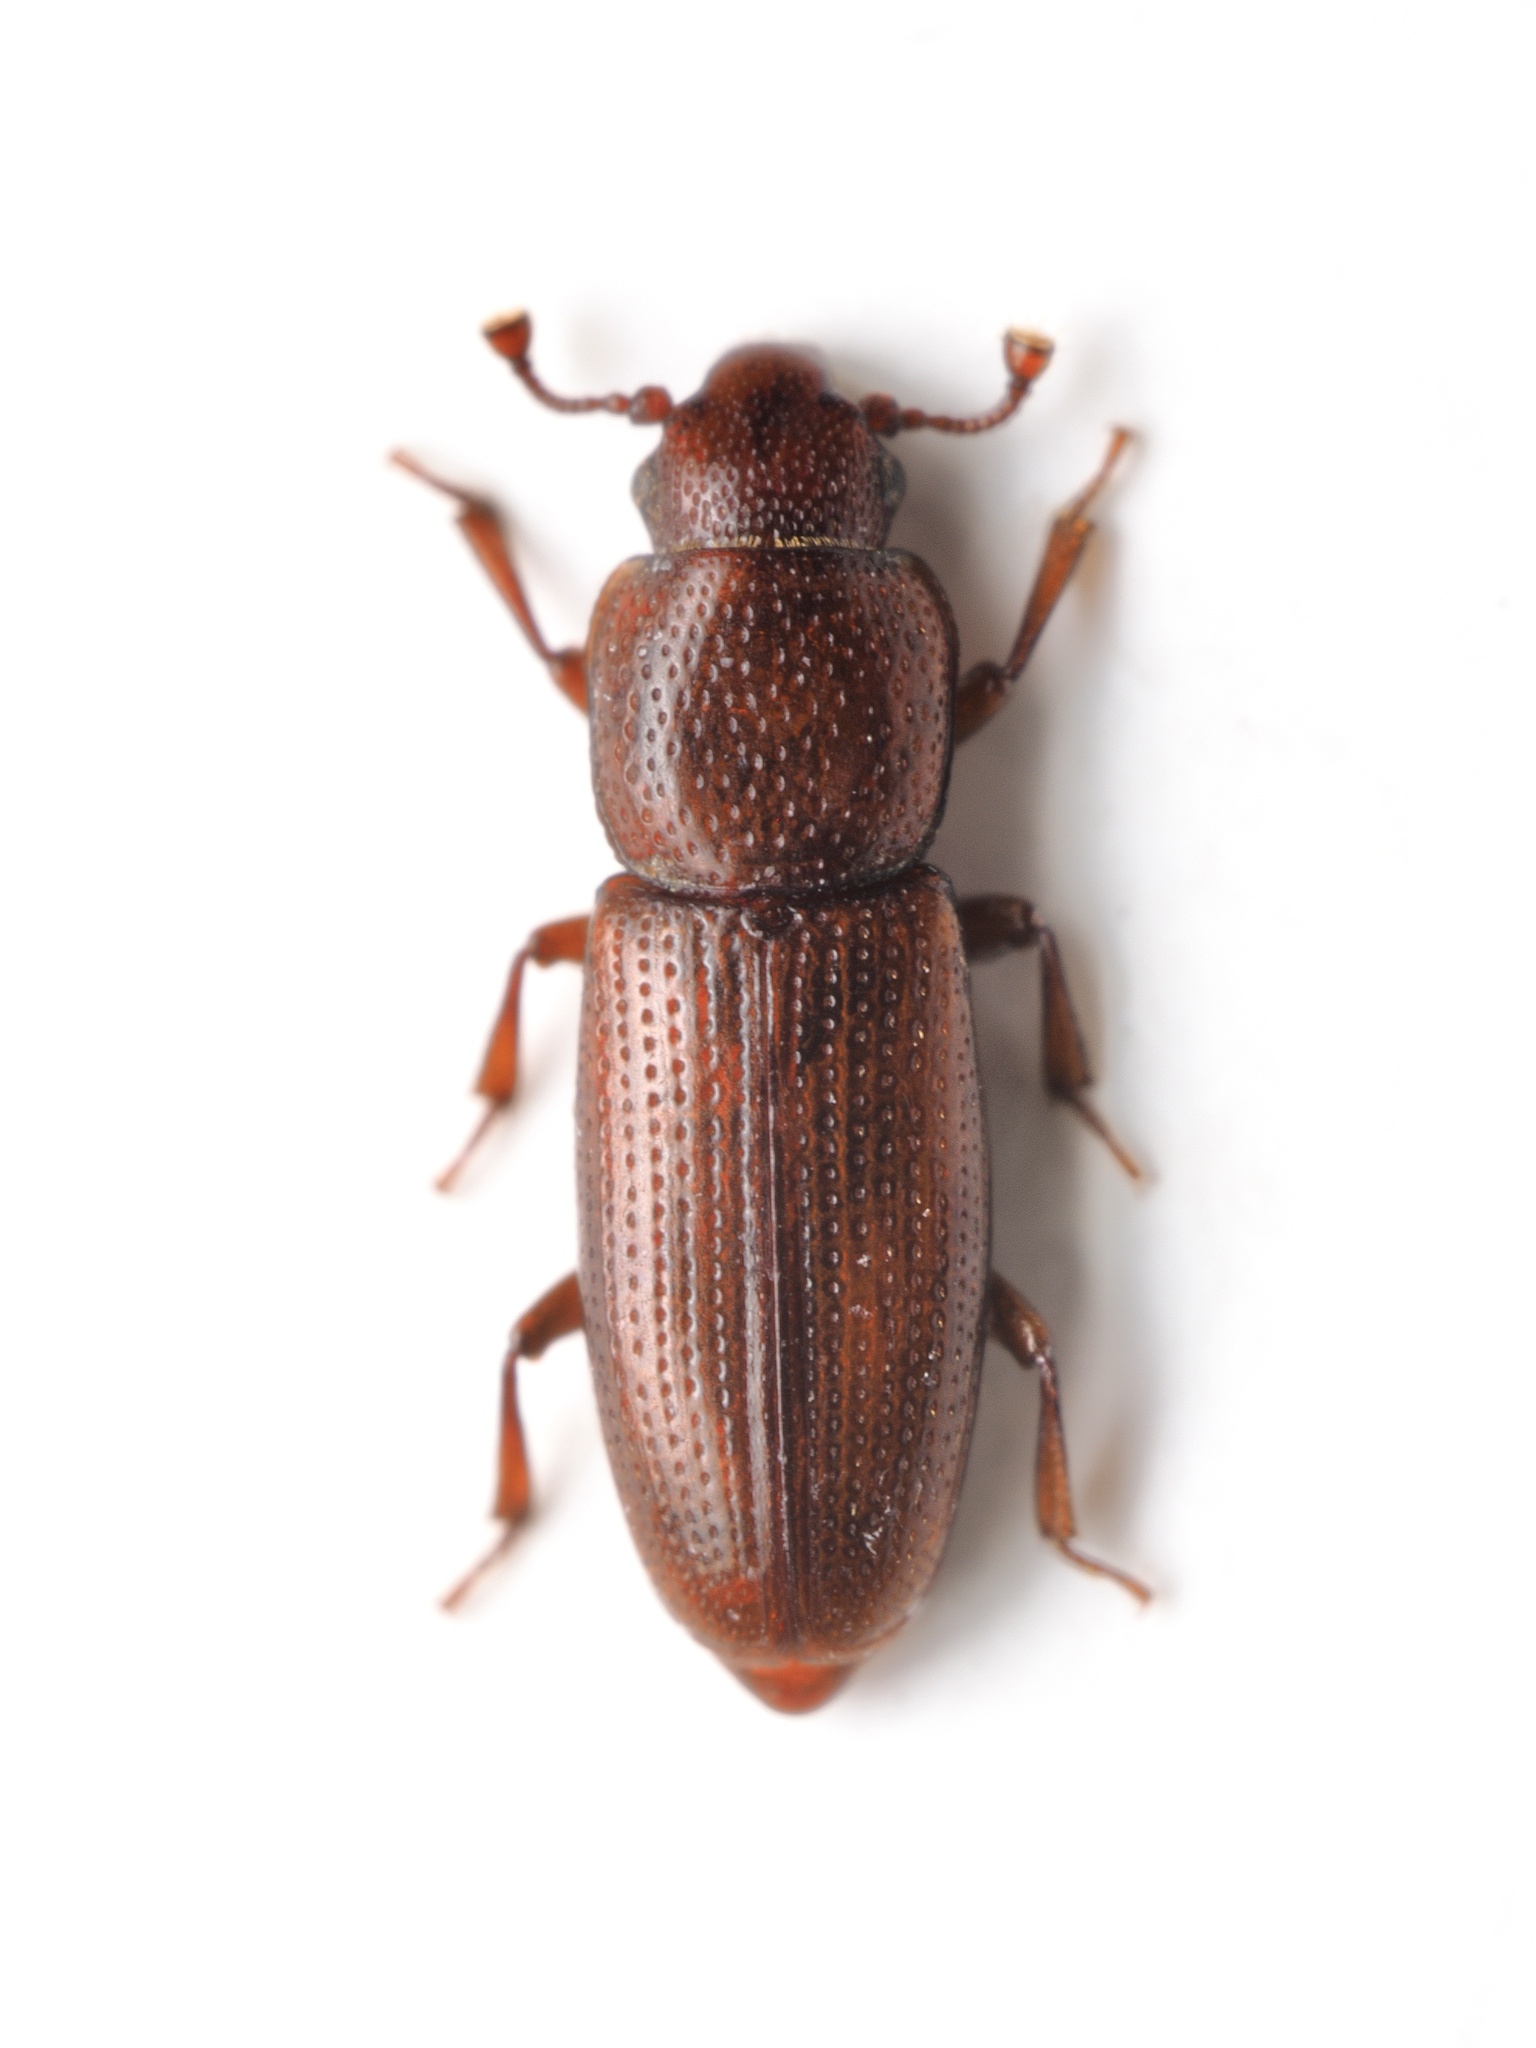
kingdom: Animalia
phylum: Arthropoda
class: Insecta
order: Coleoptera
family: Monotomidae
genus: Rhizophagus
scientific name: Rhizophagus cribratus
